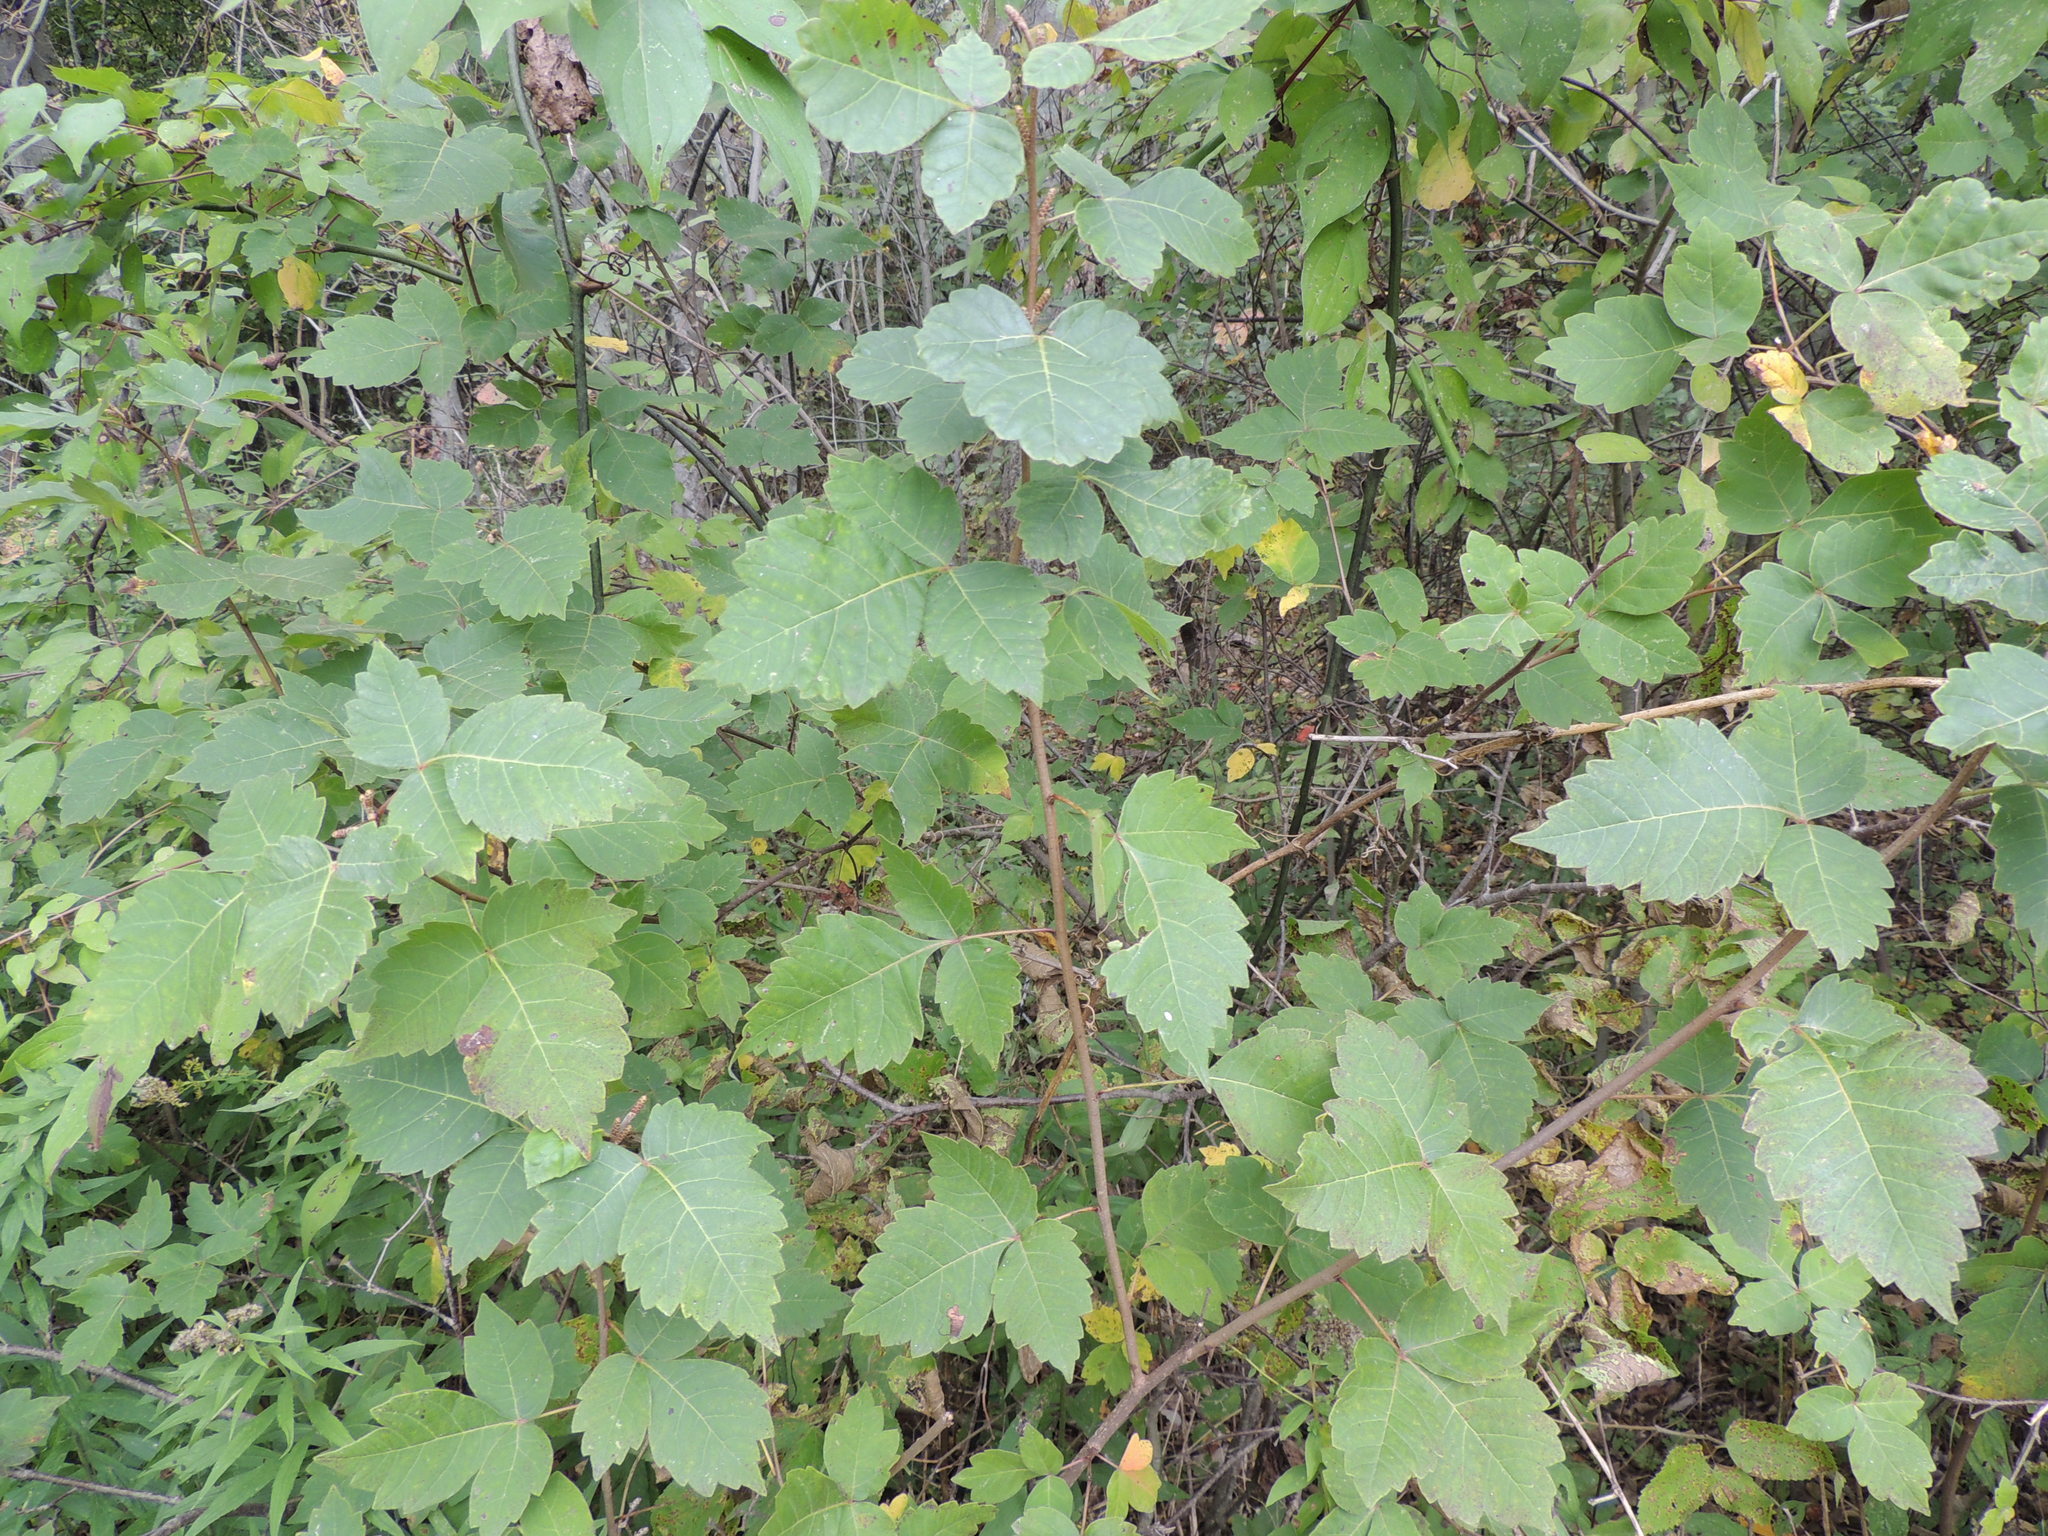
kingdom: Plantae
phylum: Tracheophyta
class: Magnoliopsida
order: Sapindales
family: Anacardiaceae
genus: Rhus
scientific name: Rhus aromatica
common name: Aromatic sumac
